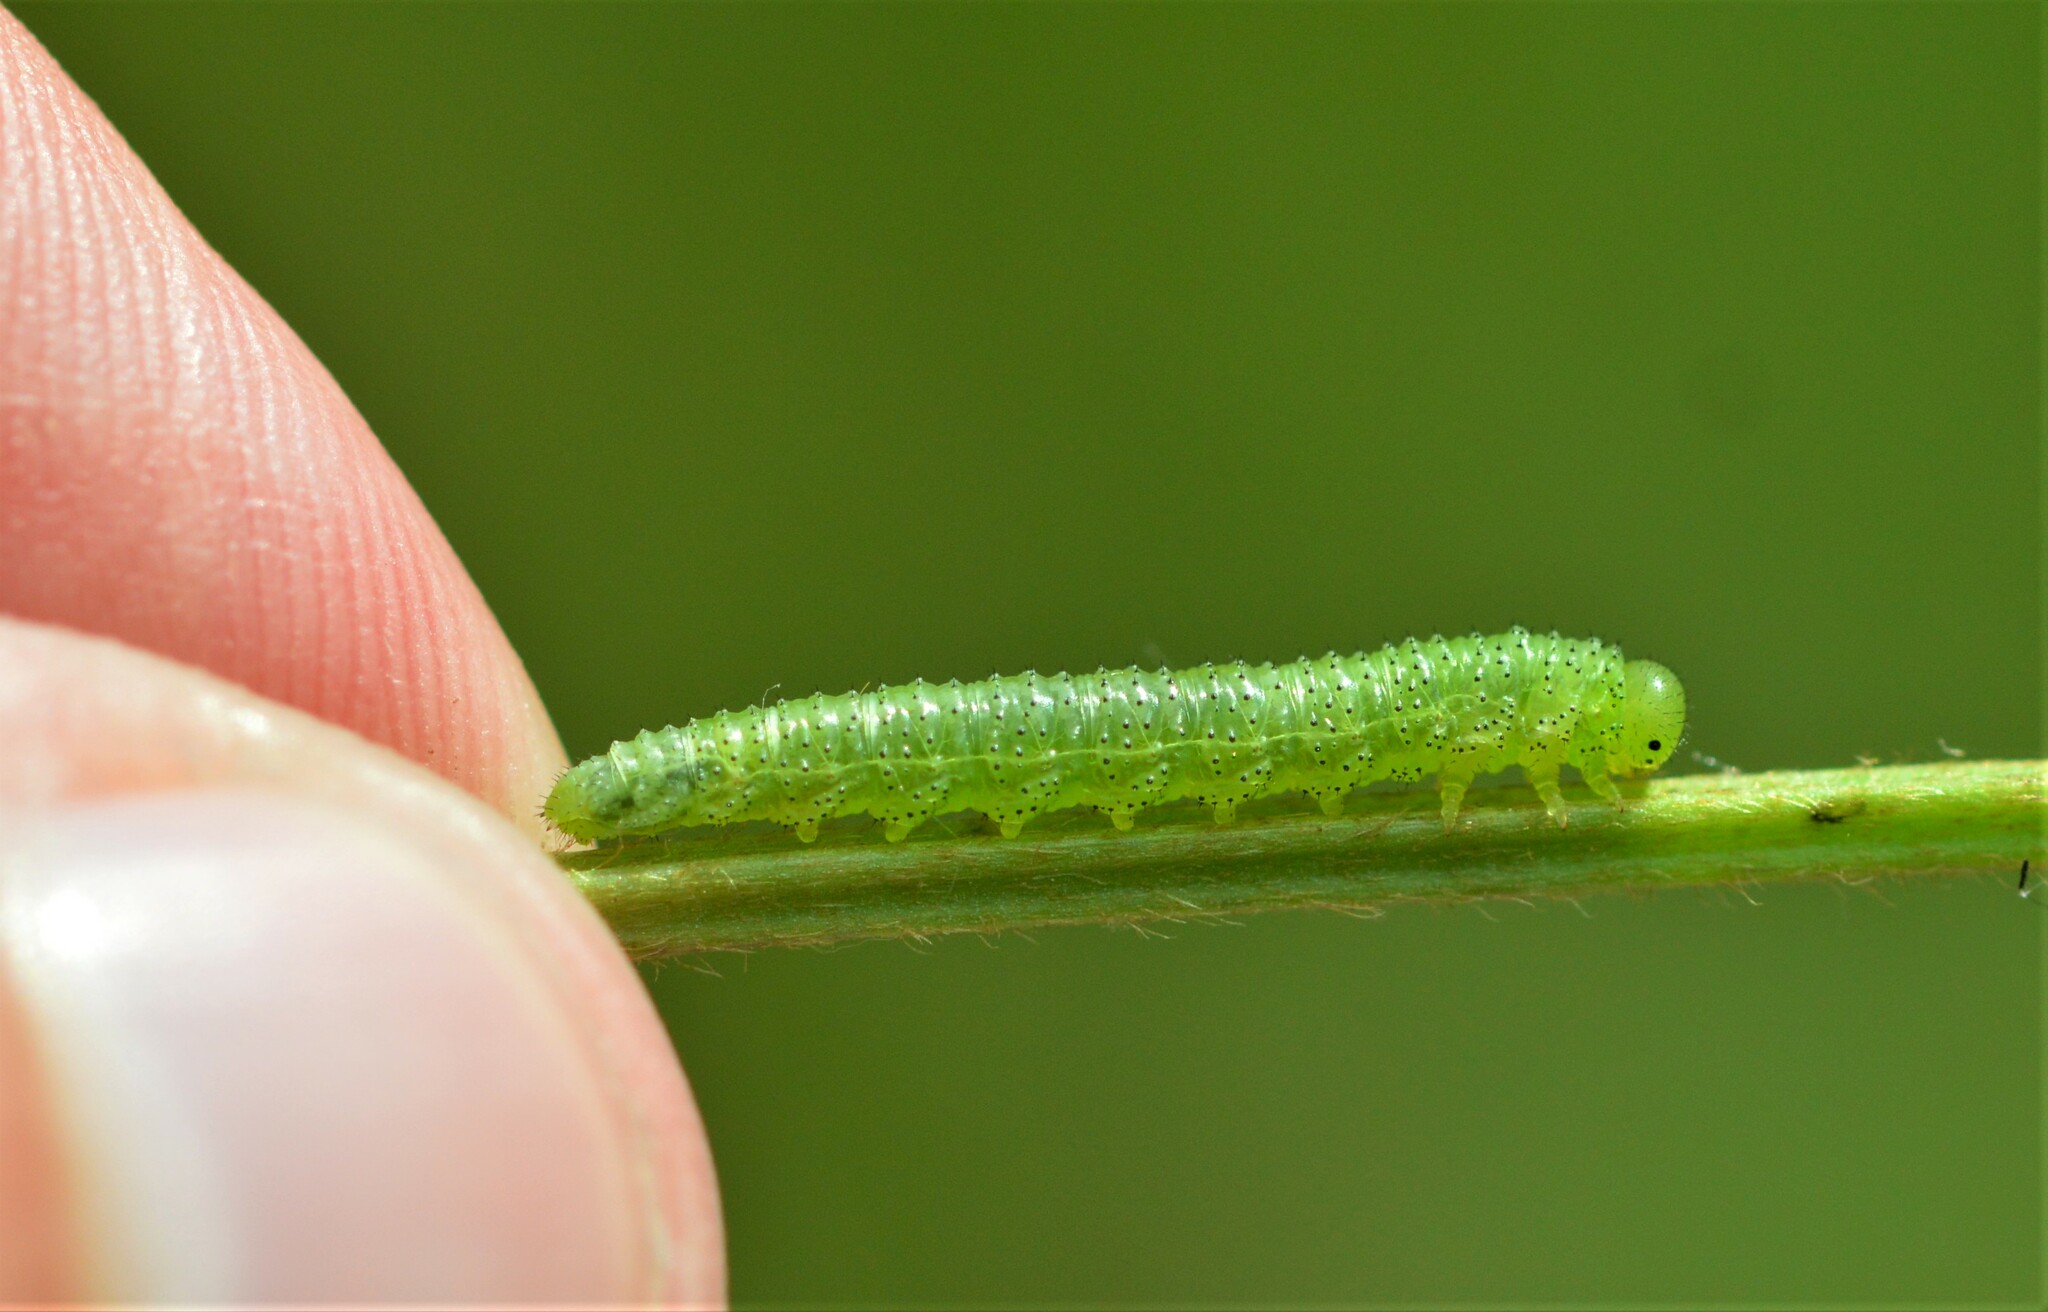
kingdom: Animalia
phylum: Arthropoda
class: Insecta
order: Hymenoptera
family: Tenthredinidae
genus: Amauronematus
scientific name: Amauronematus humeralis
